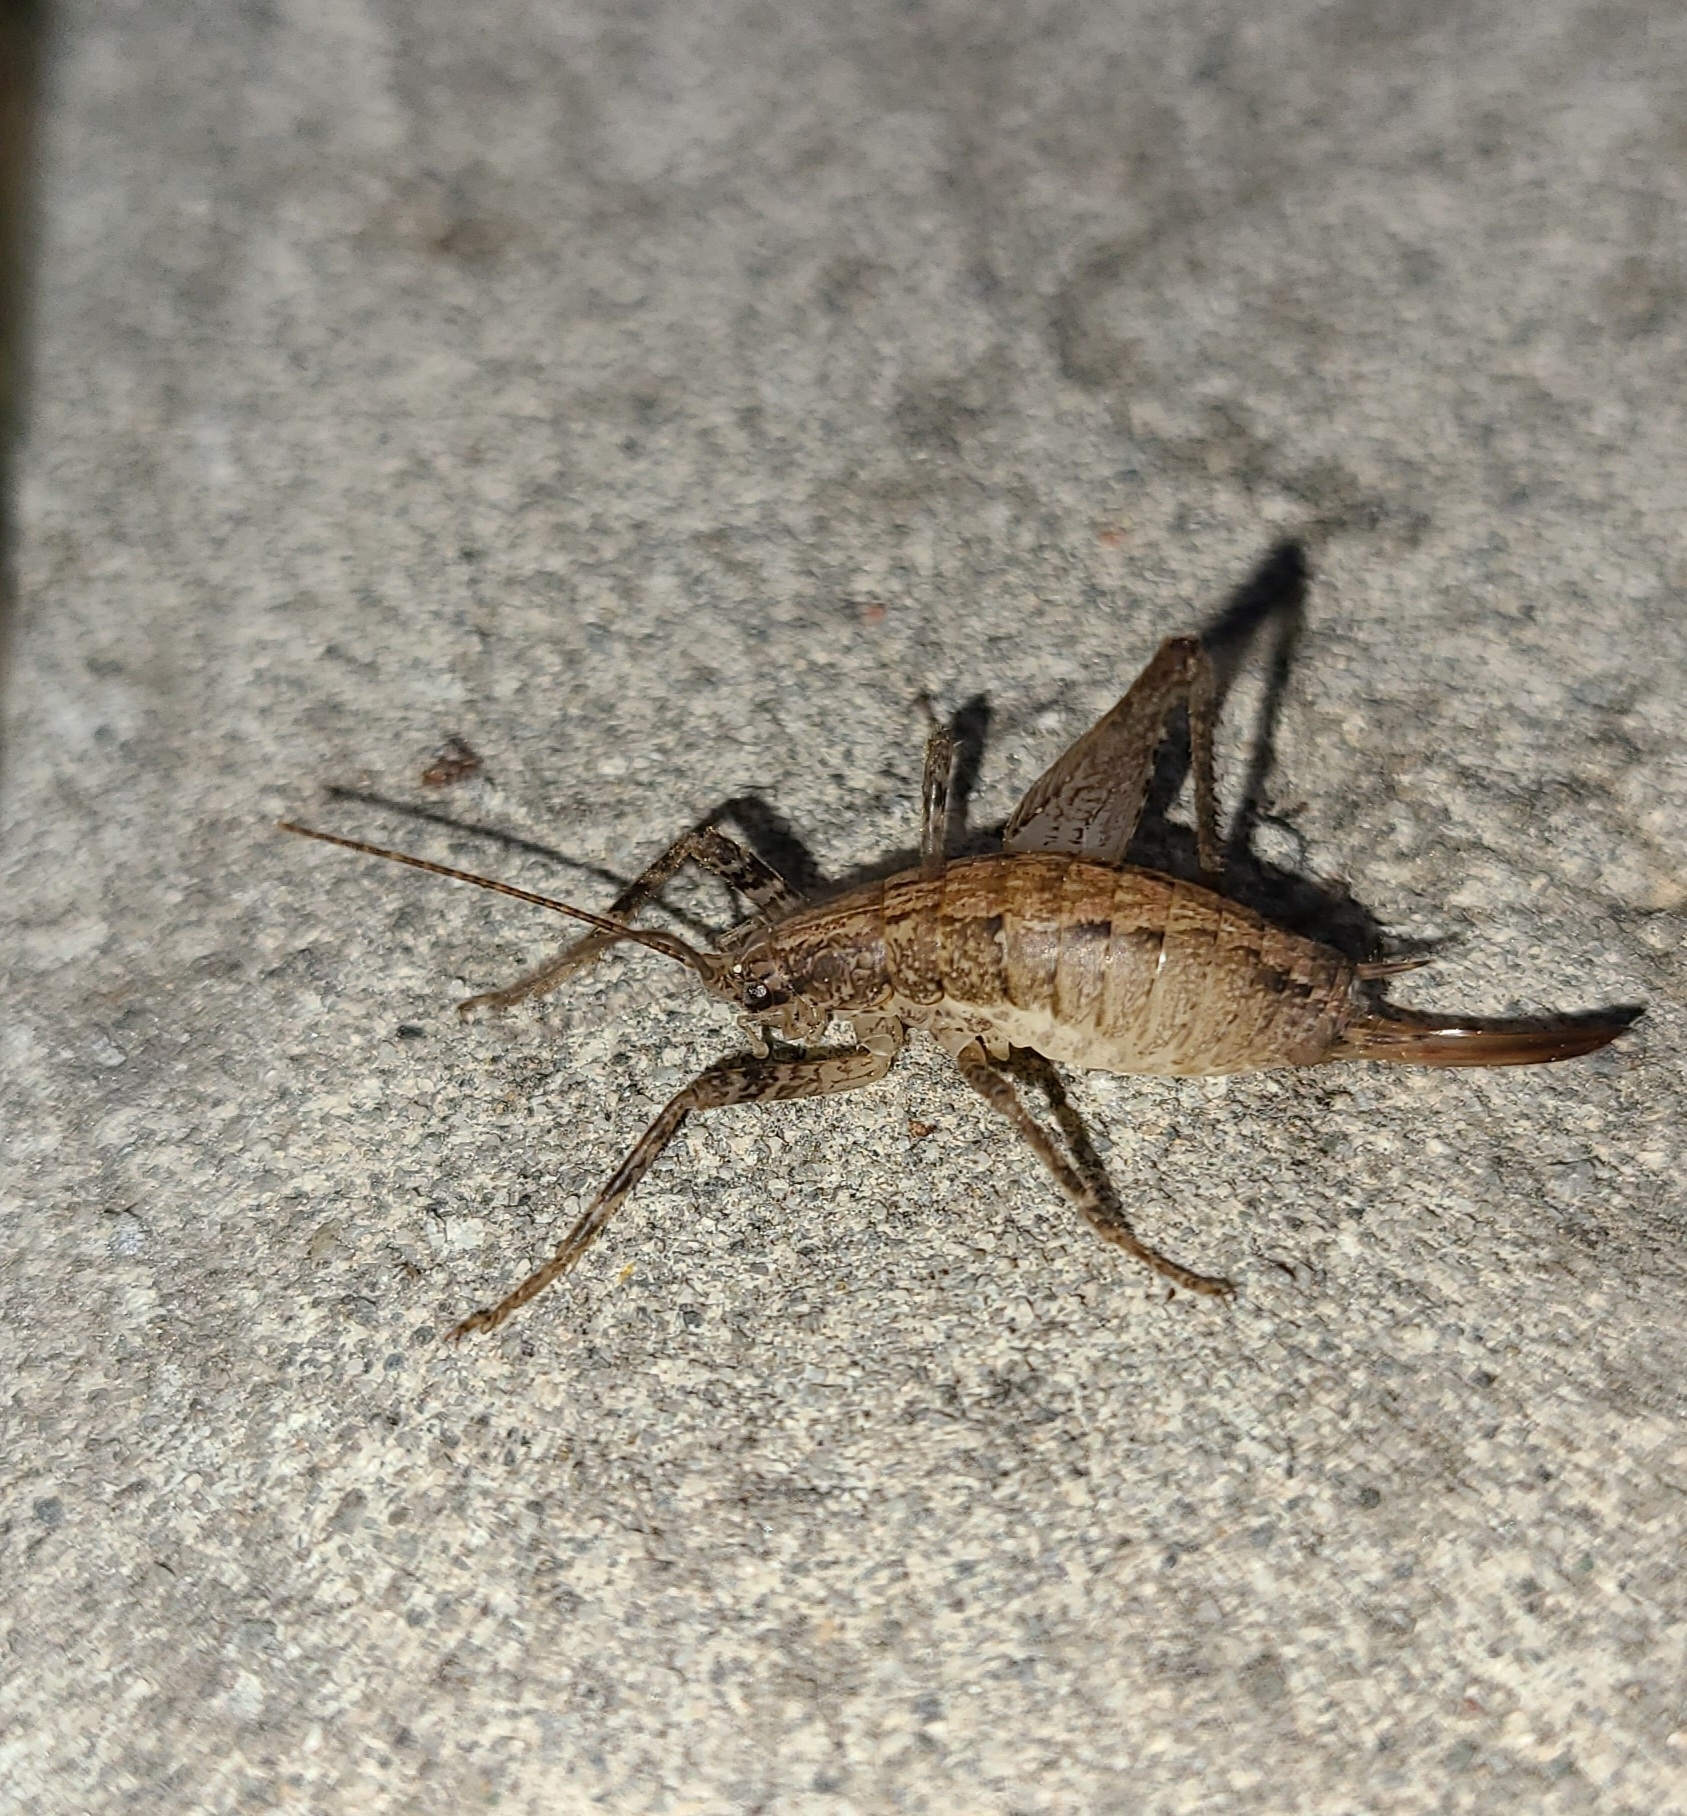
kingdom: Animalia
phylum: Arthropoda
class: Insecta
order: Orthoptera
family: Rhaphidophoridae
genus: Isoplectron
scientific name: Isoplectron armatum
